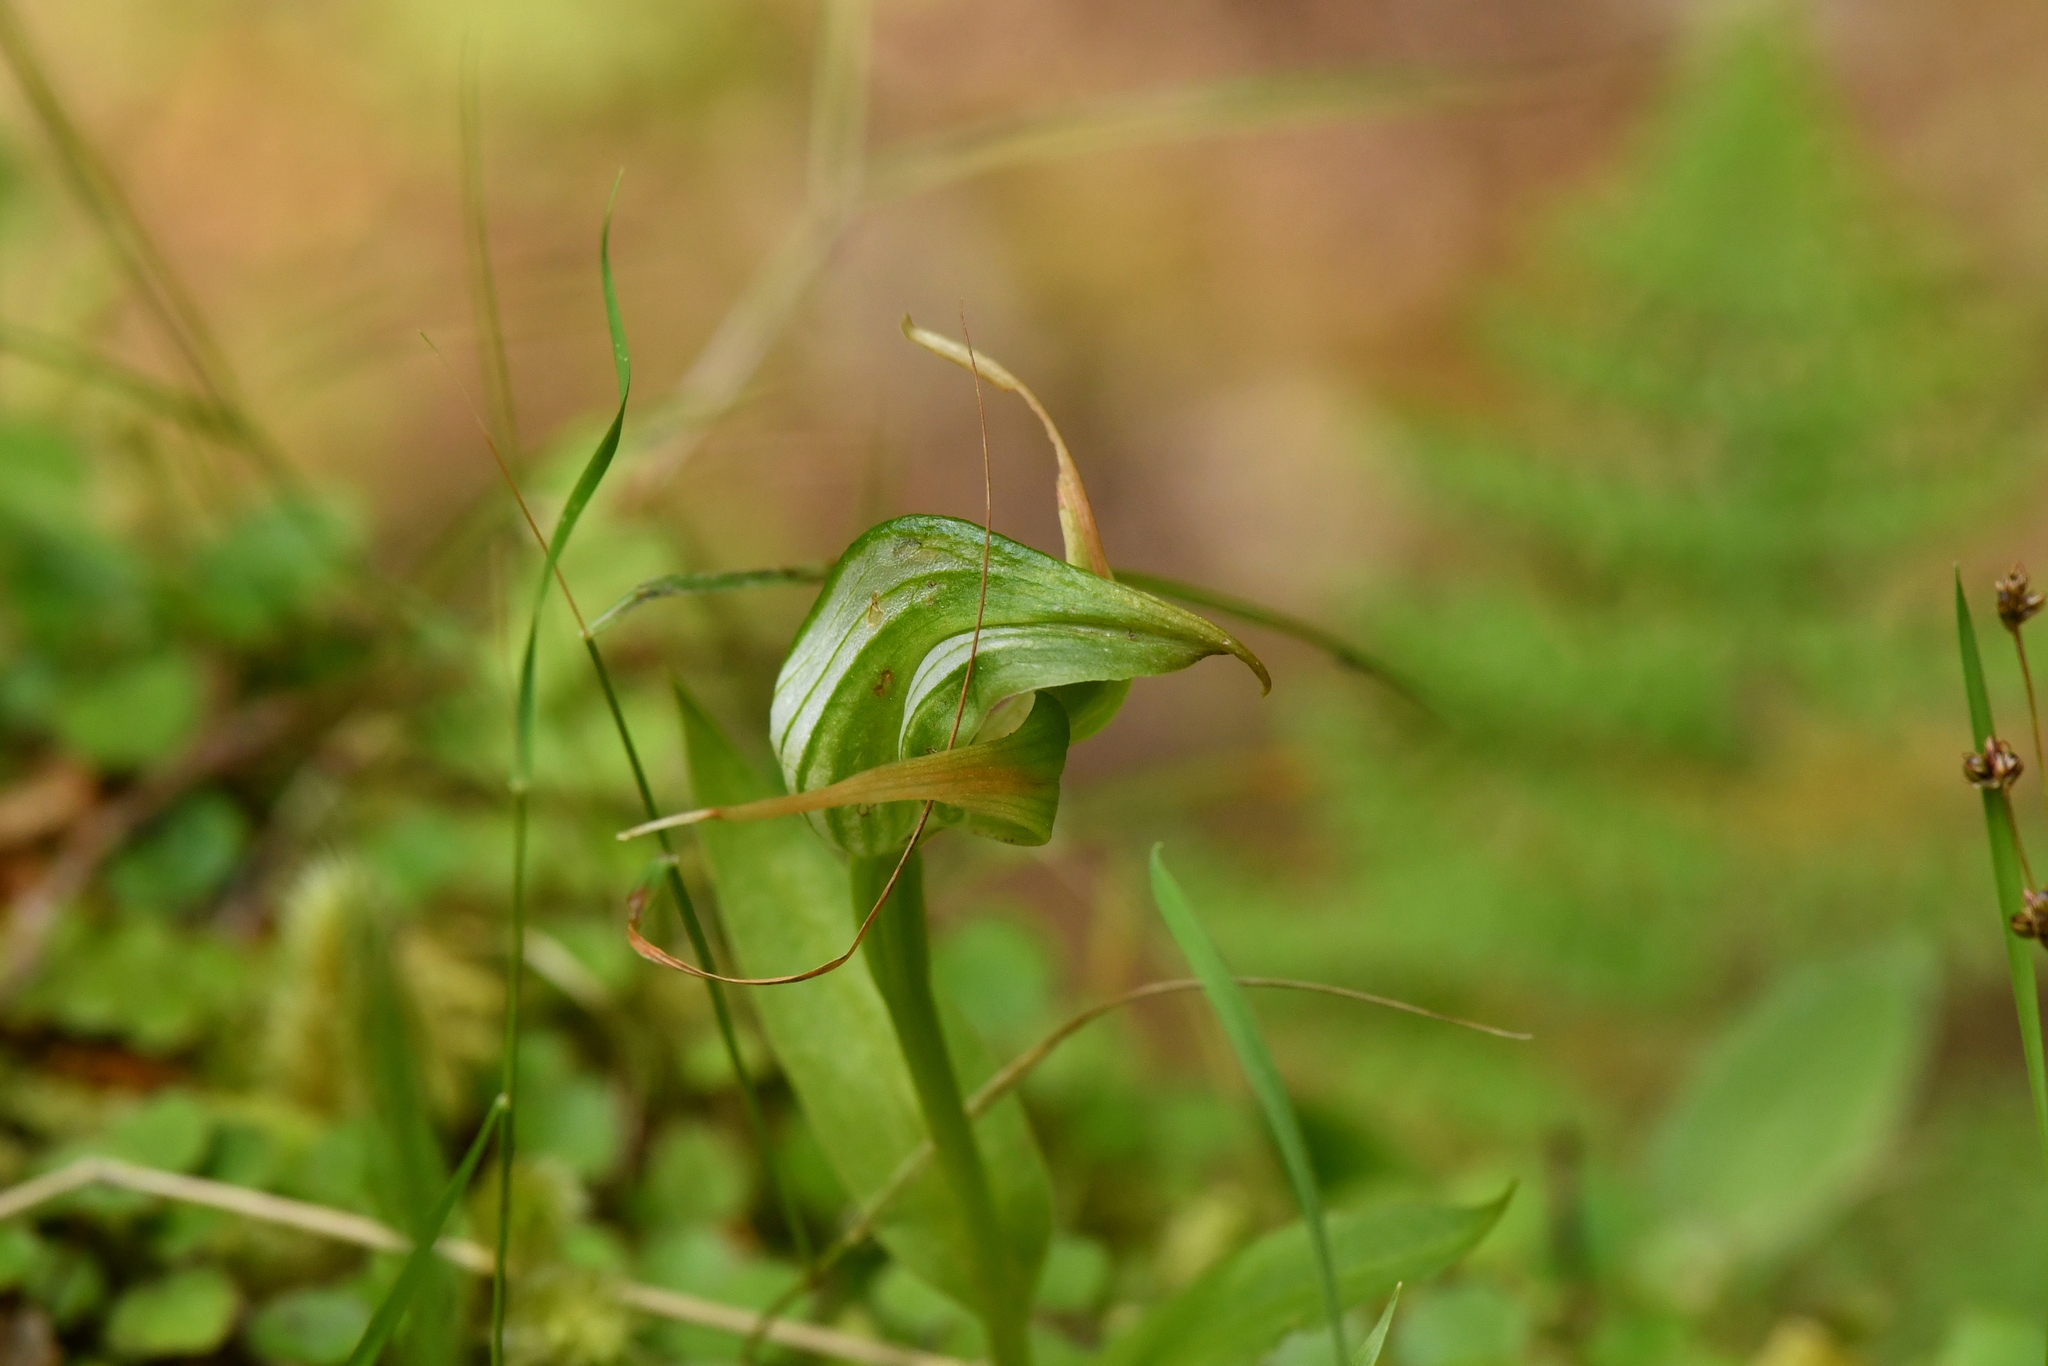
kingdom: Plantae
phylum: Tracheophyta
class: Liliopsida
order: Asparagales
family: Orchidaceae
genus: Pterostylis
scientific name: Pterostylis australis
